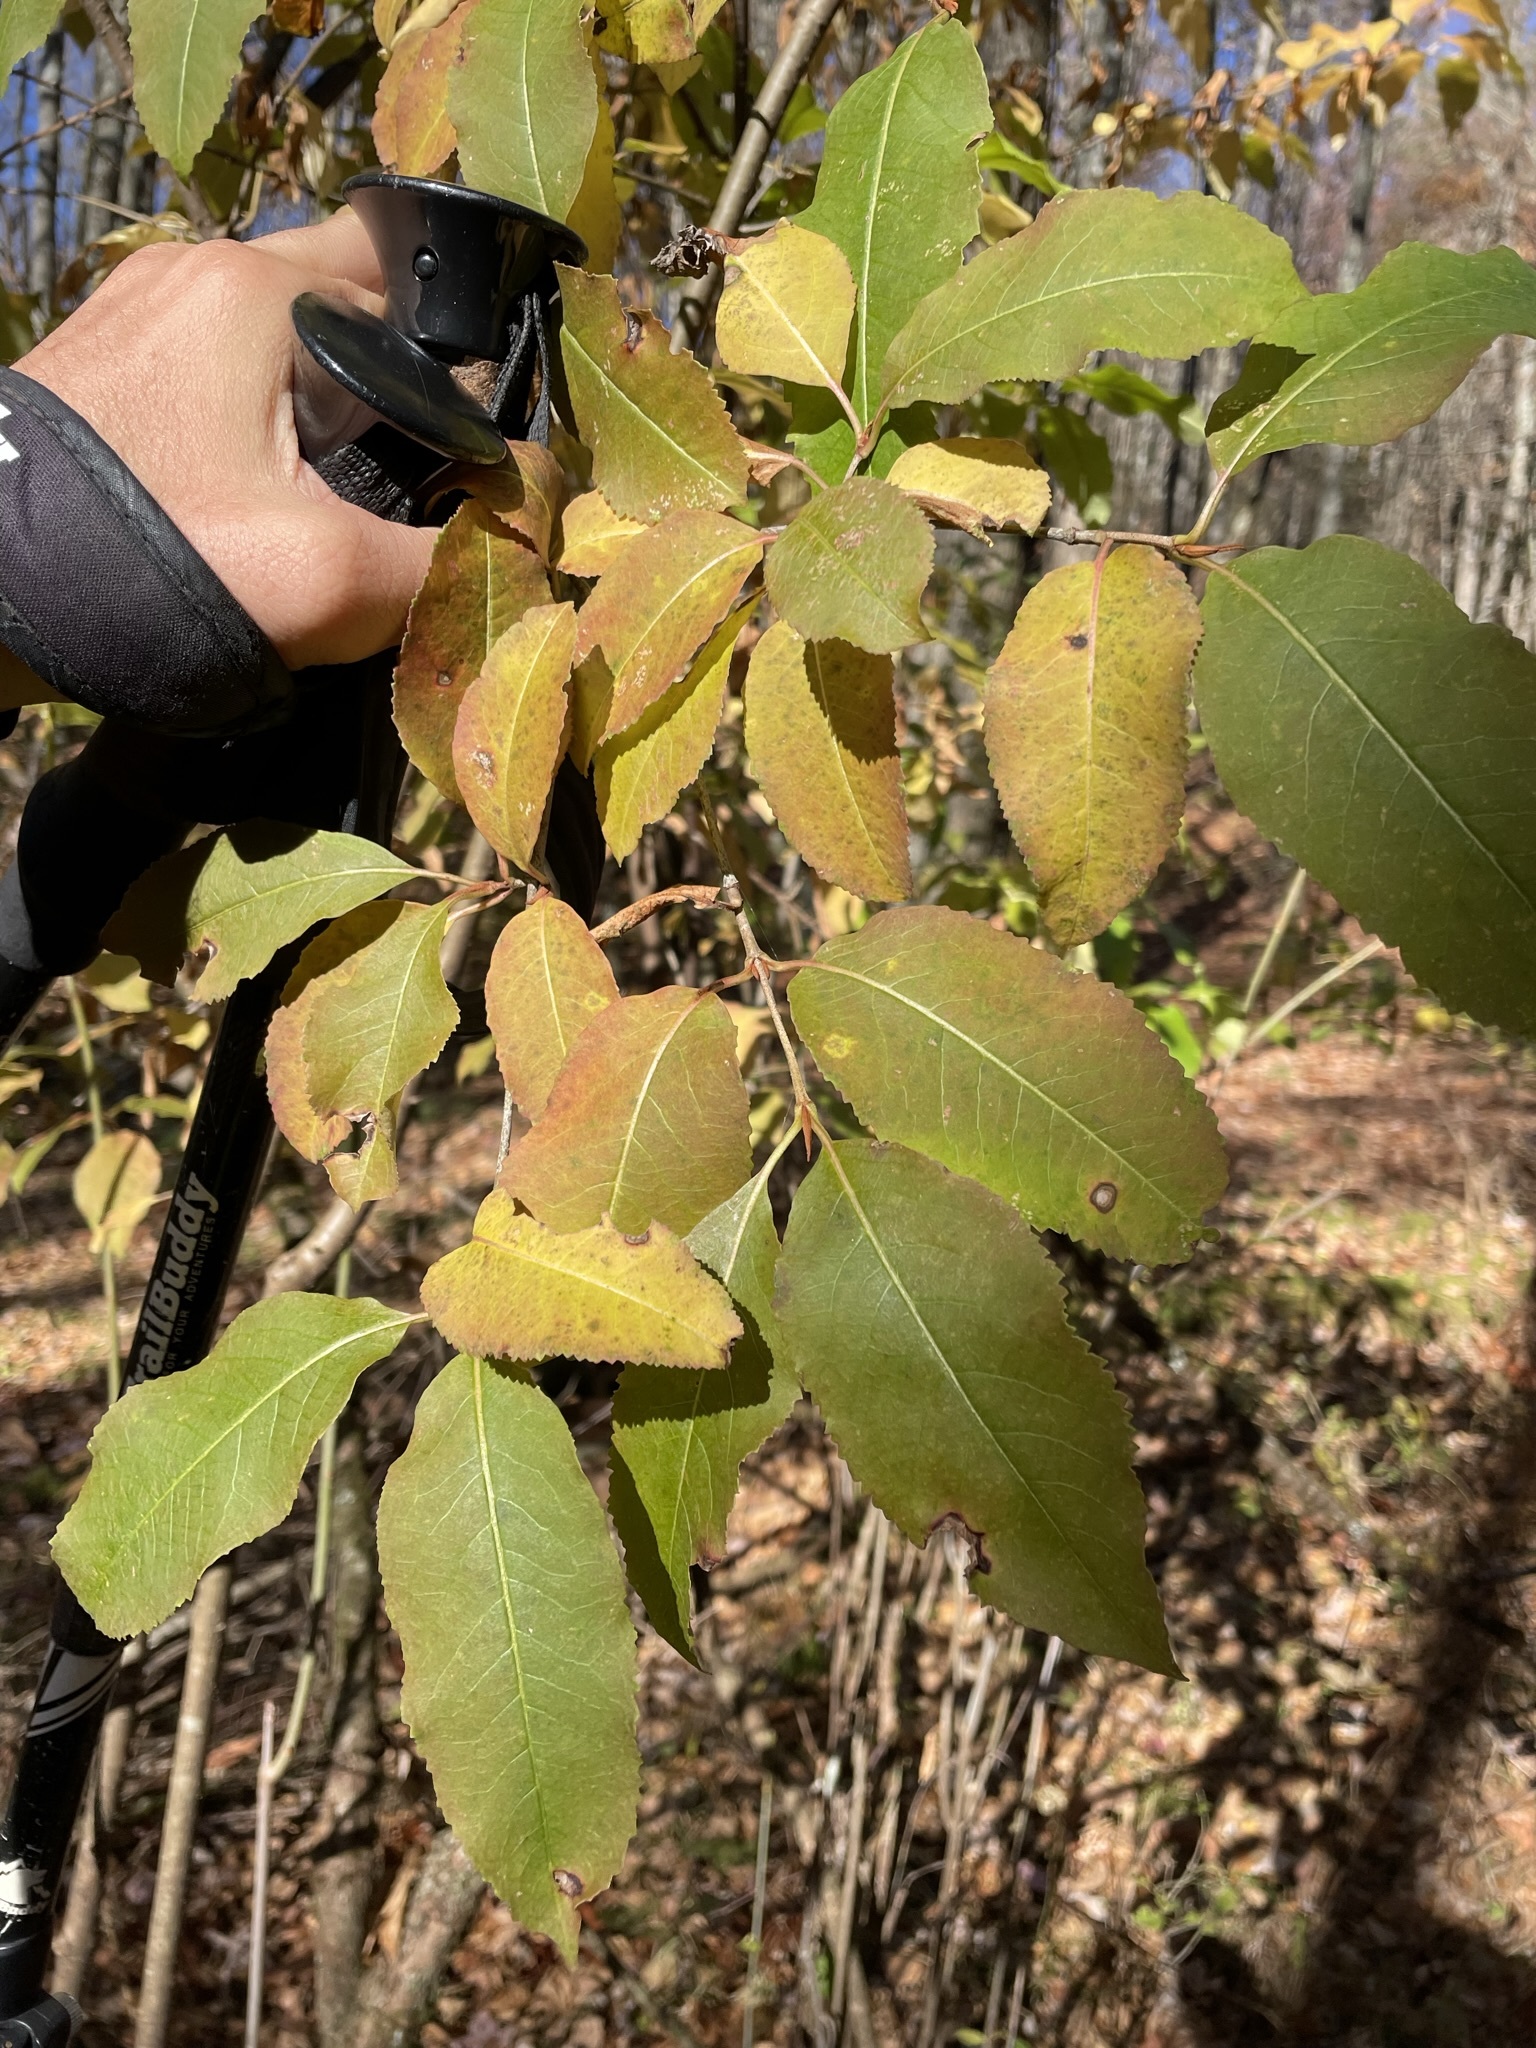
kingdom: Plantae
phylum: Tracheophyta
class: Magnoliopsida
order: Dipsacales
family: Viburnaceae
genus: Viburnum
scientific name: Viburnum cassinoides
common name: Swamp haw
